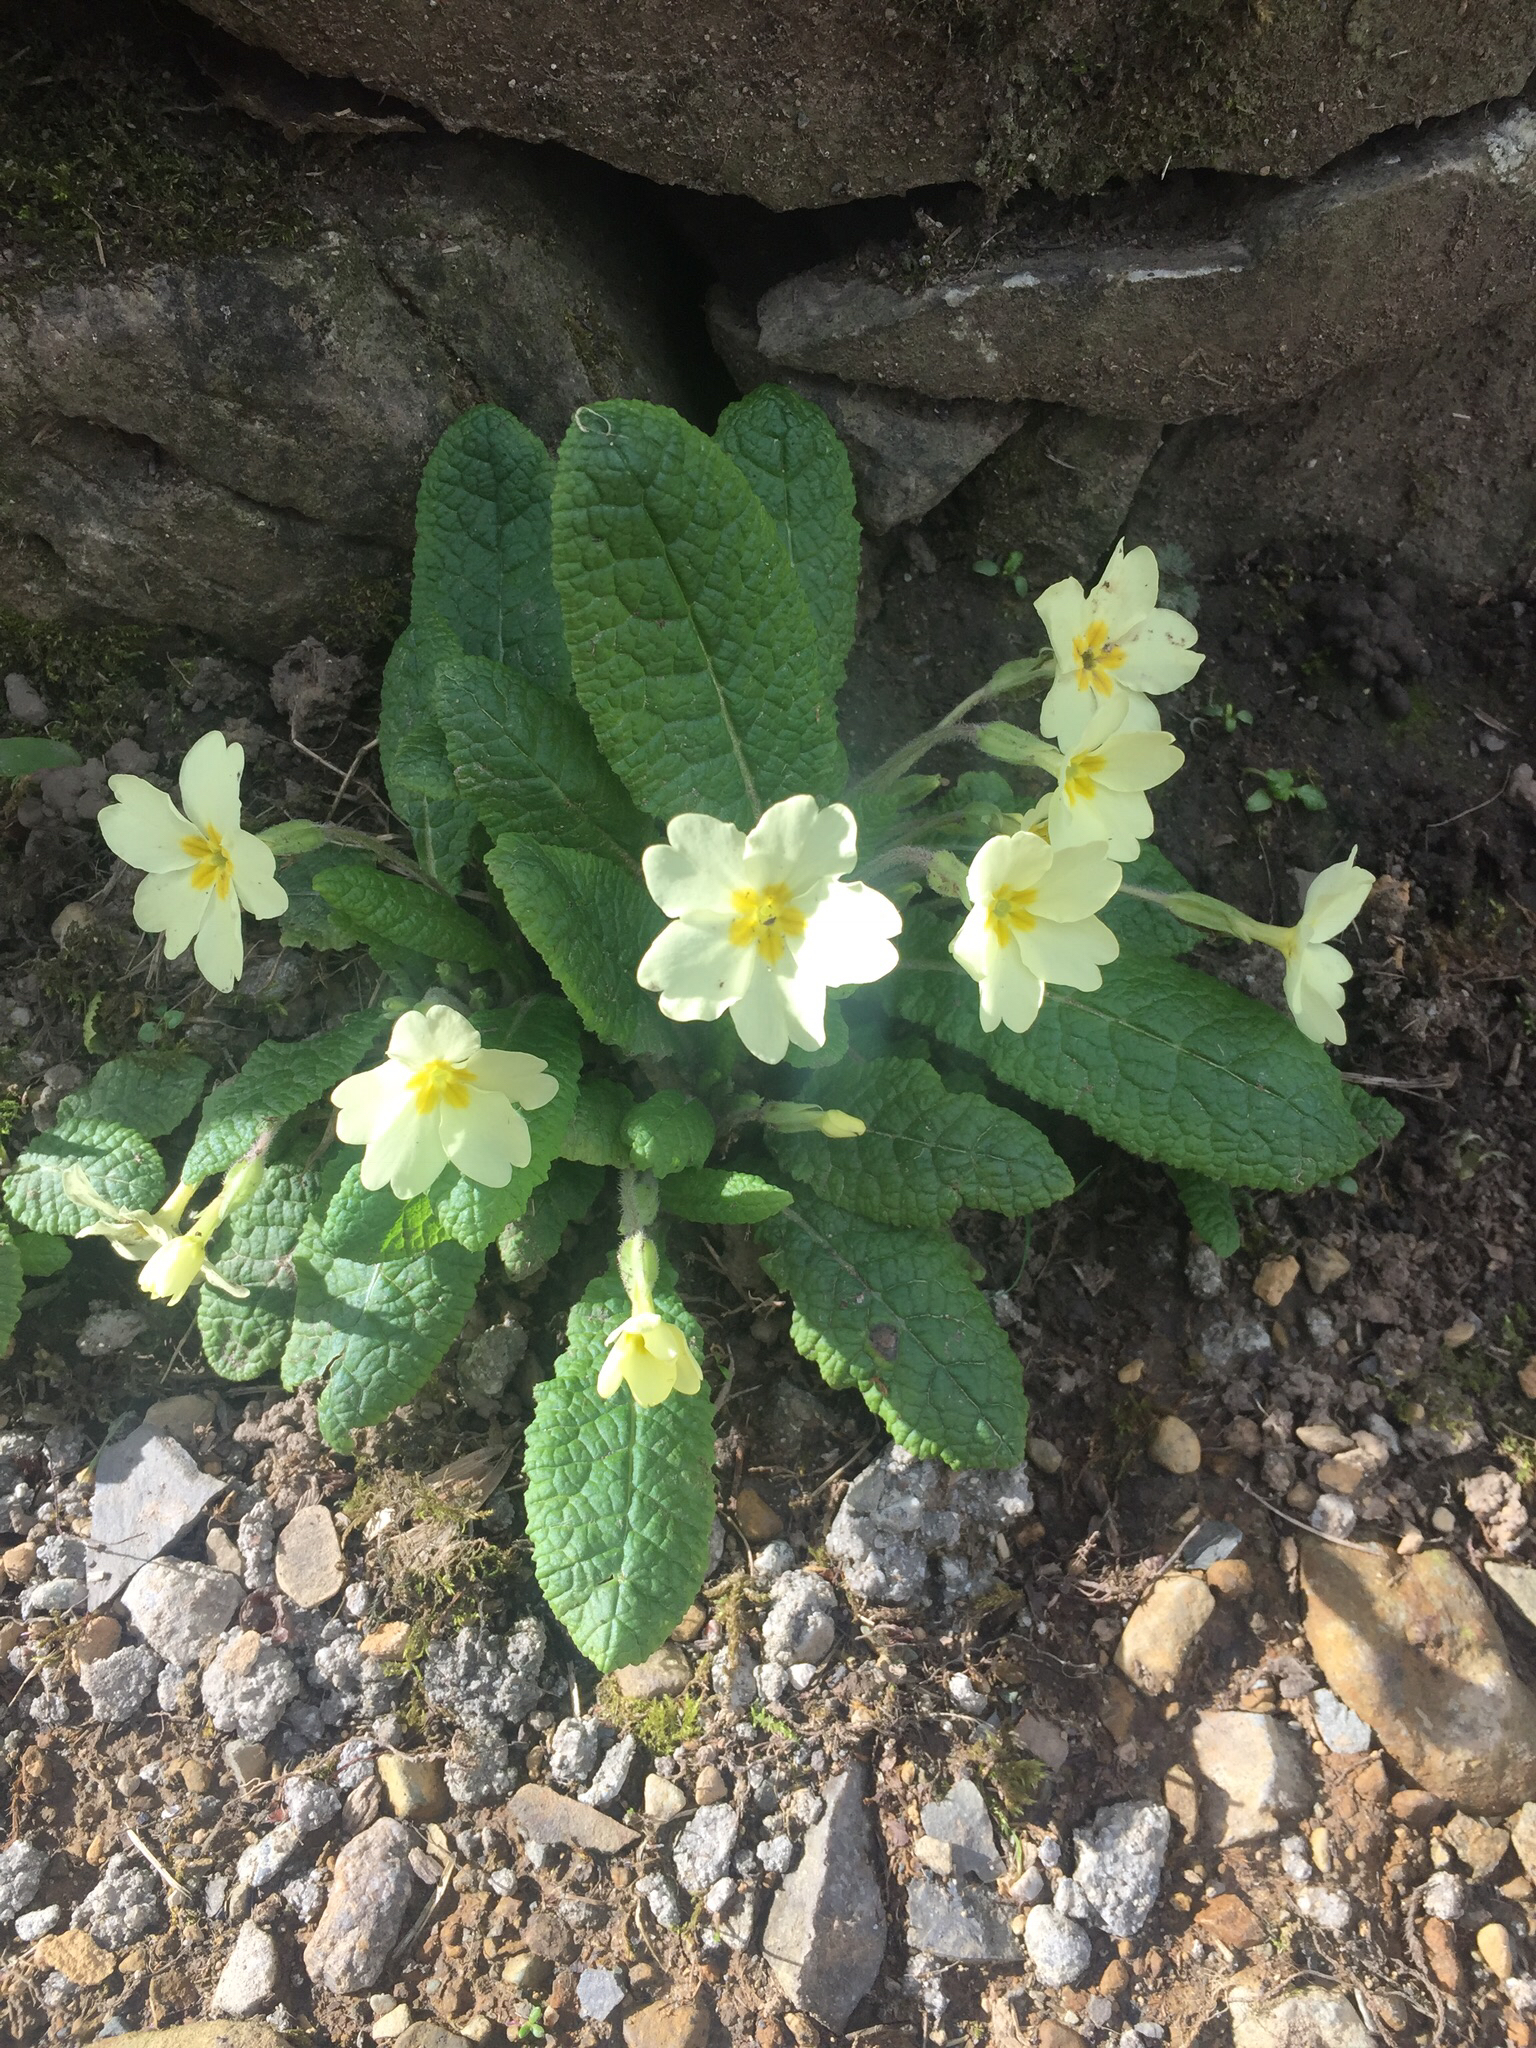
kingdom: Plantae
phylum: Tracheophyta
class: Magnoliopsida
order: Ericales
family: Primulaceae
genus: Primula
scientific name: Primula vulgaris
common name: Primrose
